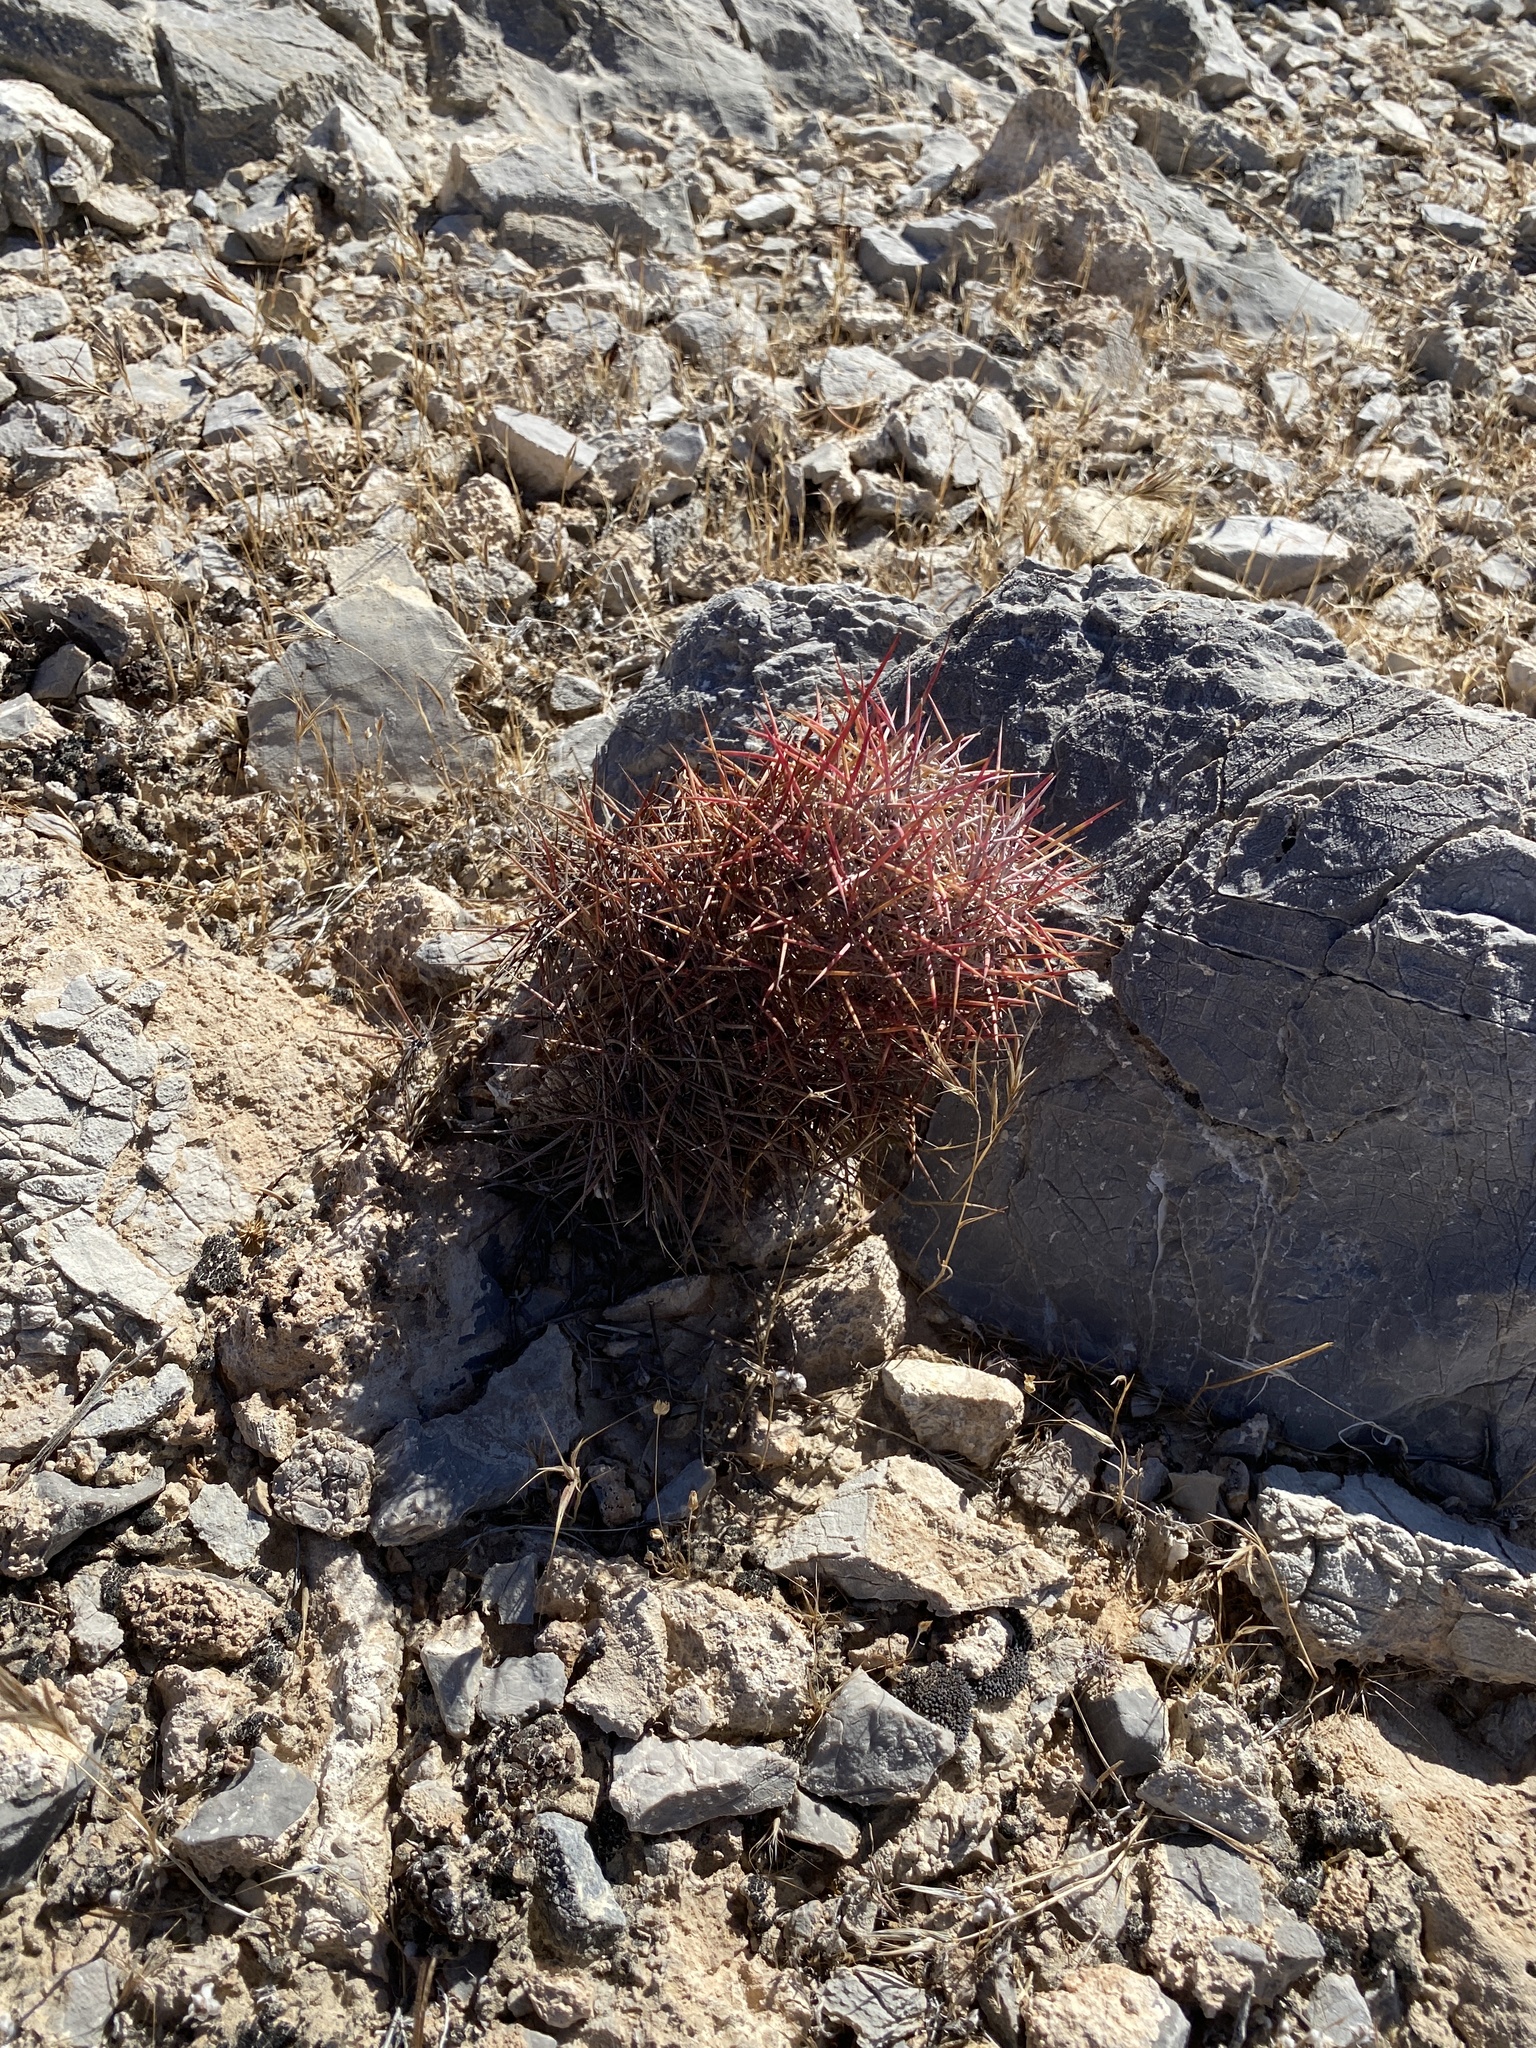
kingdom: Plantae
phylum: Tracheophyta
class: Magnoliopsida
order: Caryophyllales
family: Cactaceae
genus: Sclerocactus
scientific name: Sclerocactus johnsonii
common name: Eight-spine fishhook cactus
